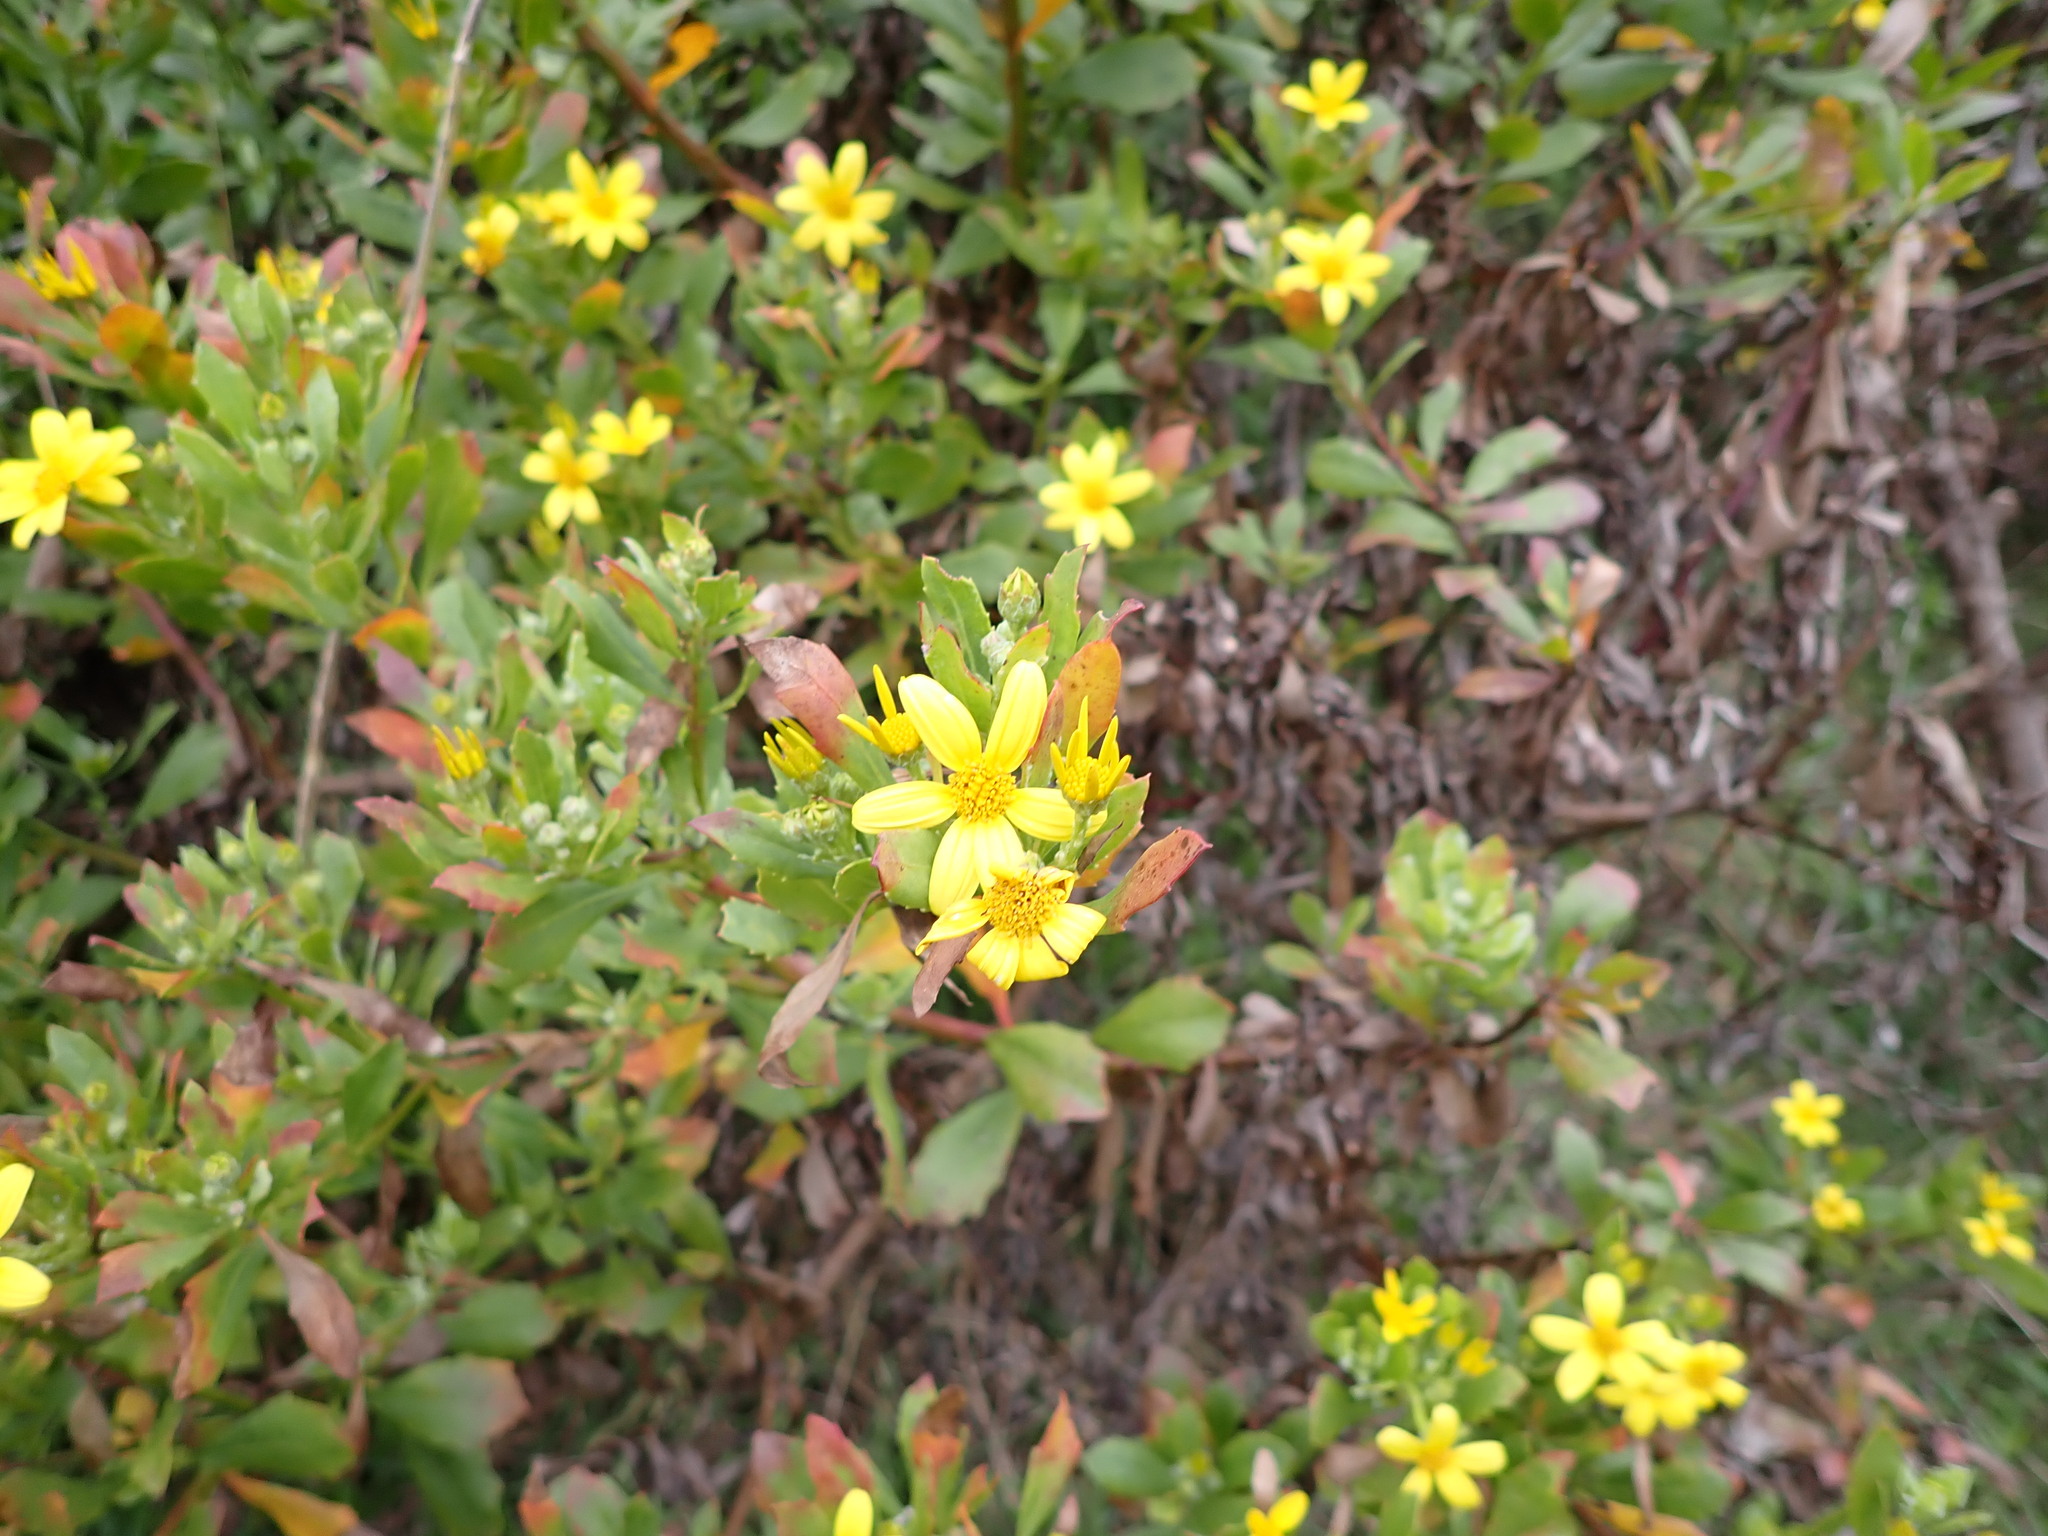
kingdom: Plantae
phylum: Tracheophyta
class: Magnoliopsida
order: Asterales
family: Asteraceae
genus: Osteospermum
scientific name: Osteospermum moniliferum
